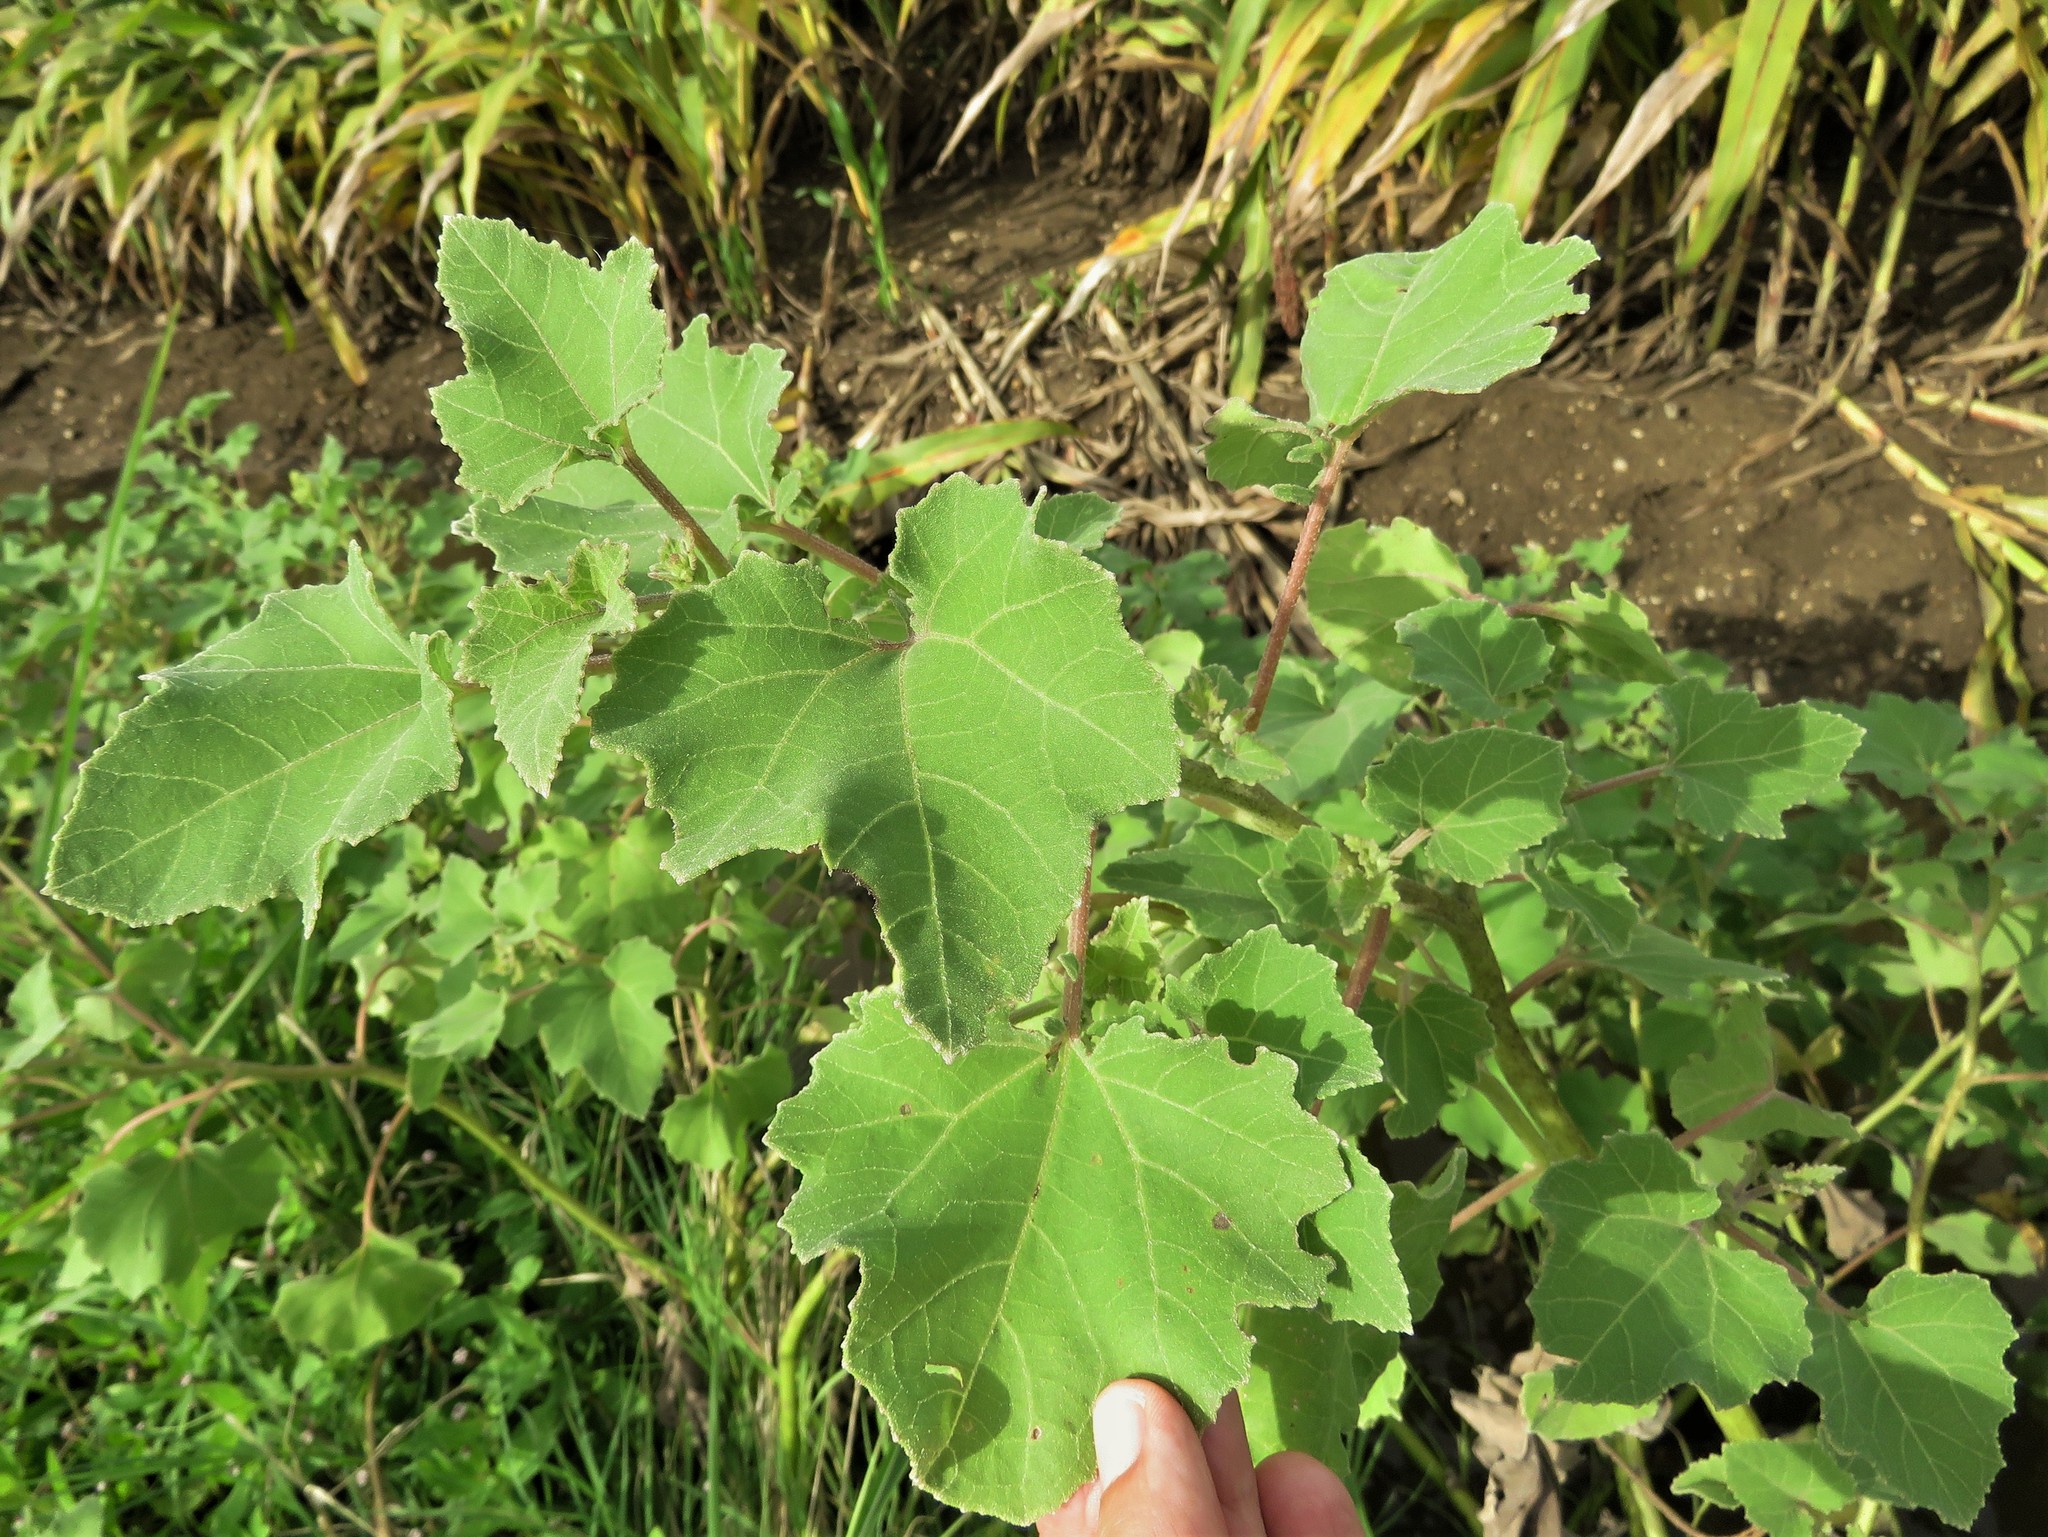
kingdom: Plantae
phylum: Tracheophyta
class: Magnoliopsida
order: Asterales
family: Asteraceae
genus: Xanthium
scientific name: Xanthium strumarium
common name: Rough cocklebur
